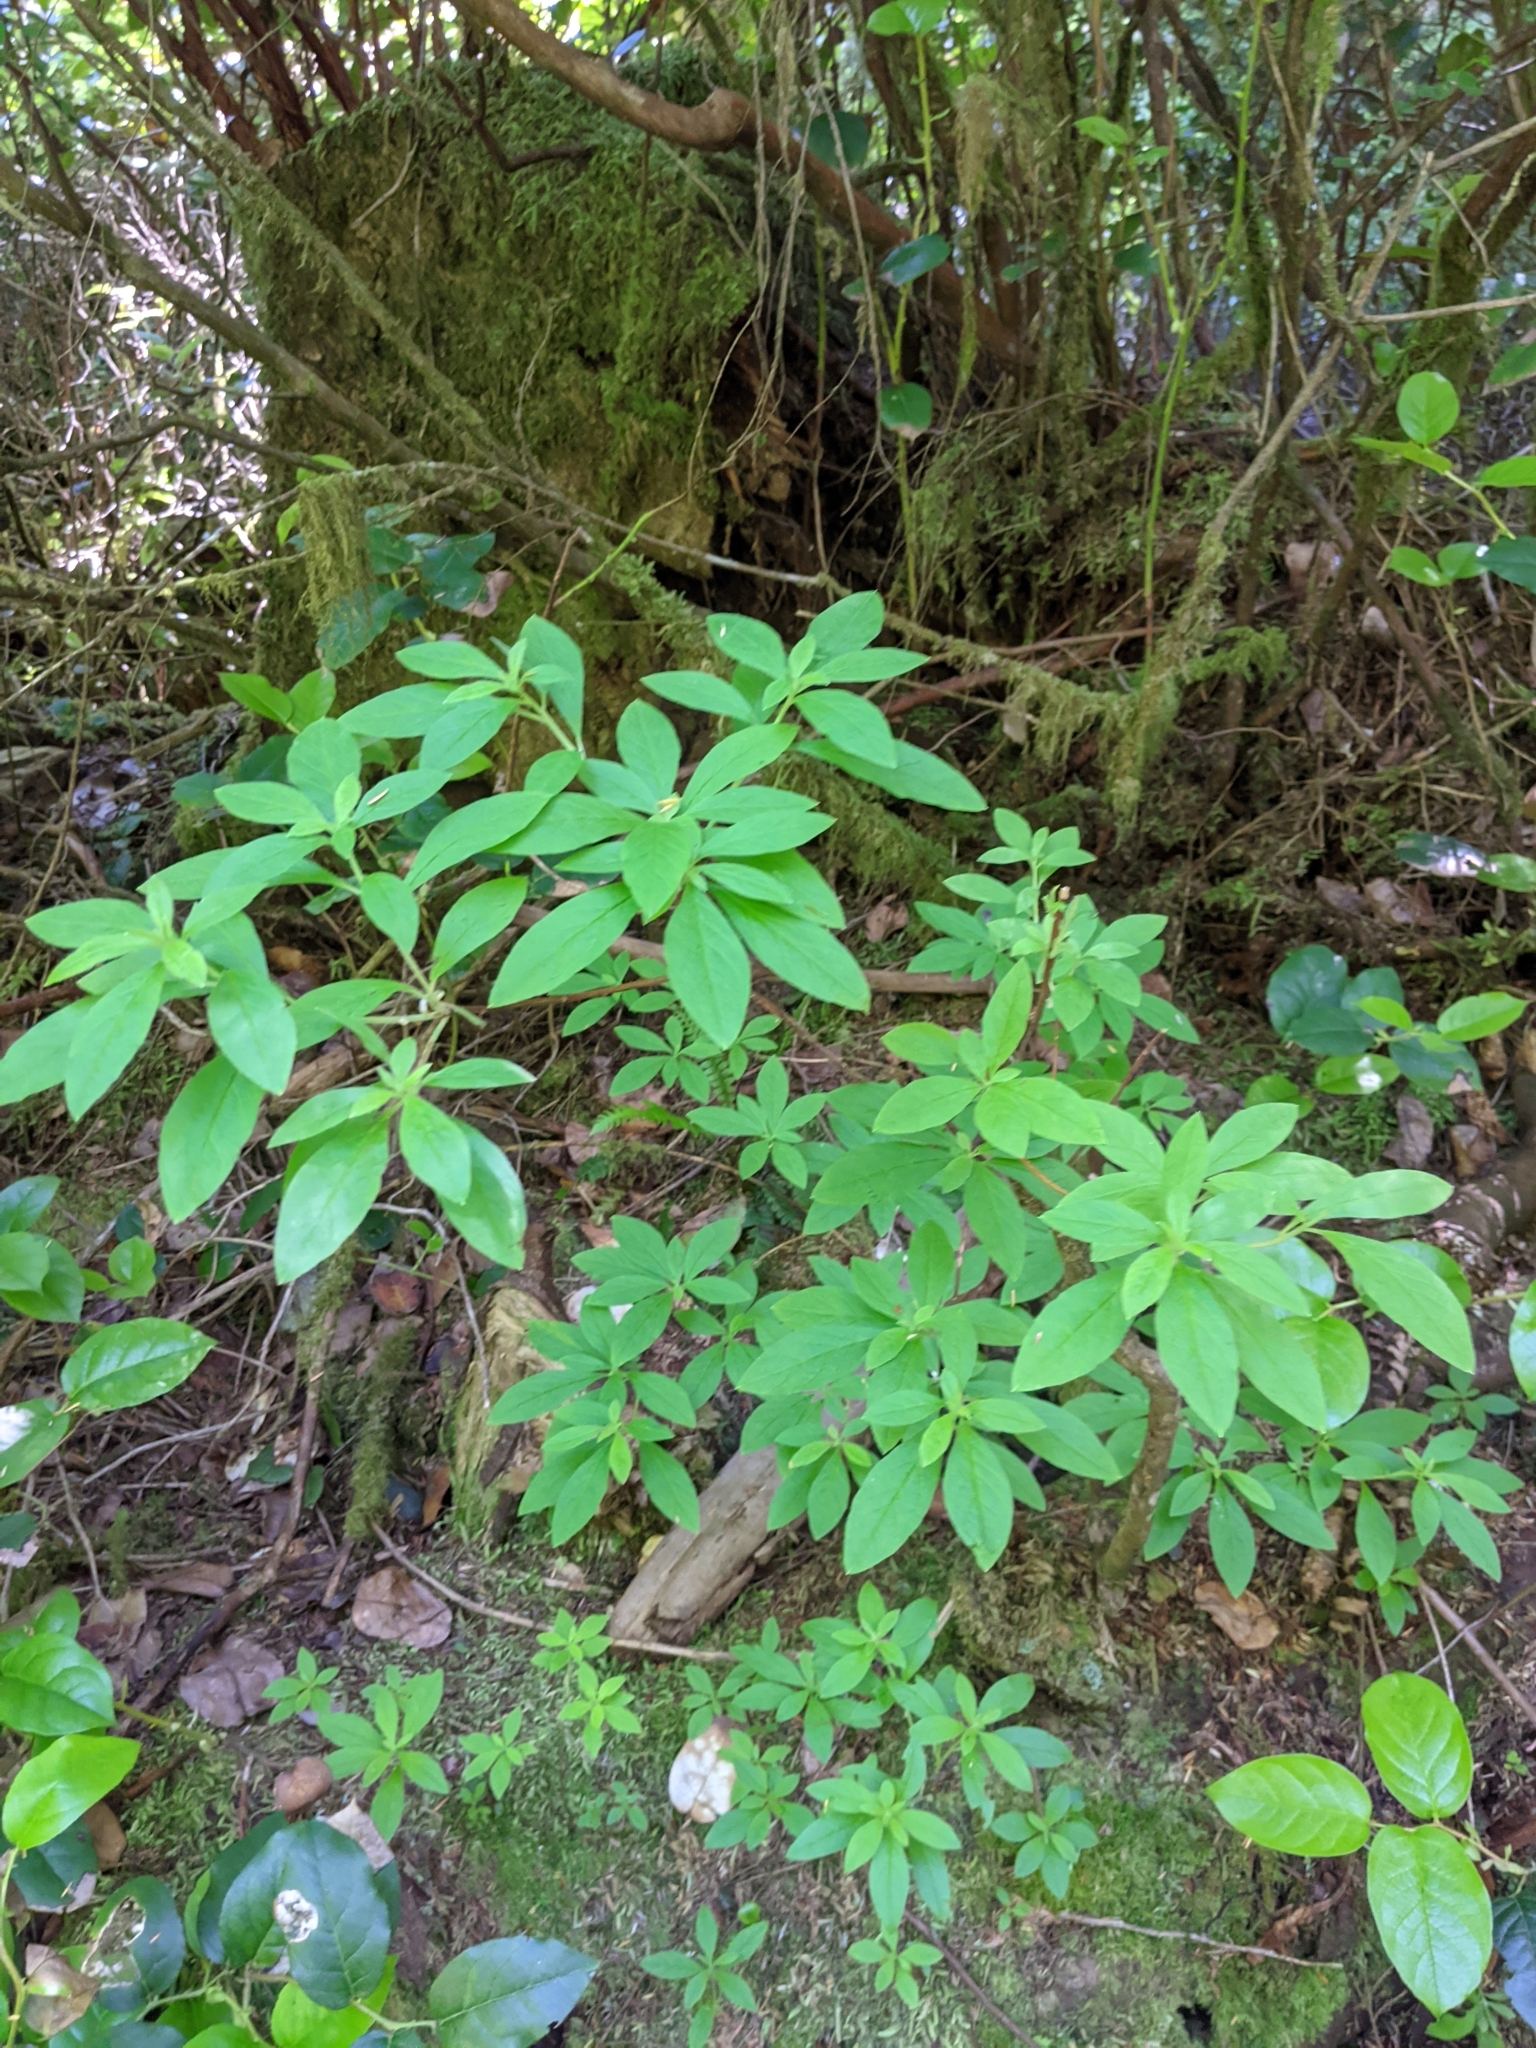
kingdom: Plantae
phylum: Tracheophyta
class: Magnoliopsida
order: Ericales
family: Ericaceae
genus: Rhododendron
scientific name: Rhododendron menziesii
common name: Pacific menziesia
